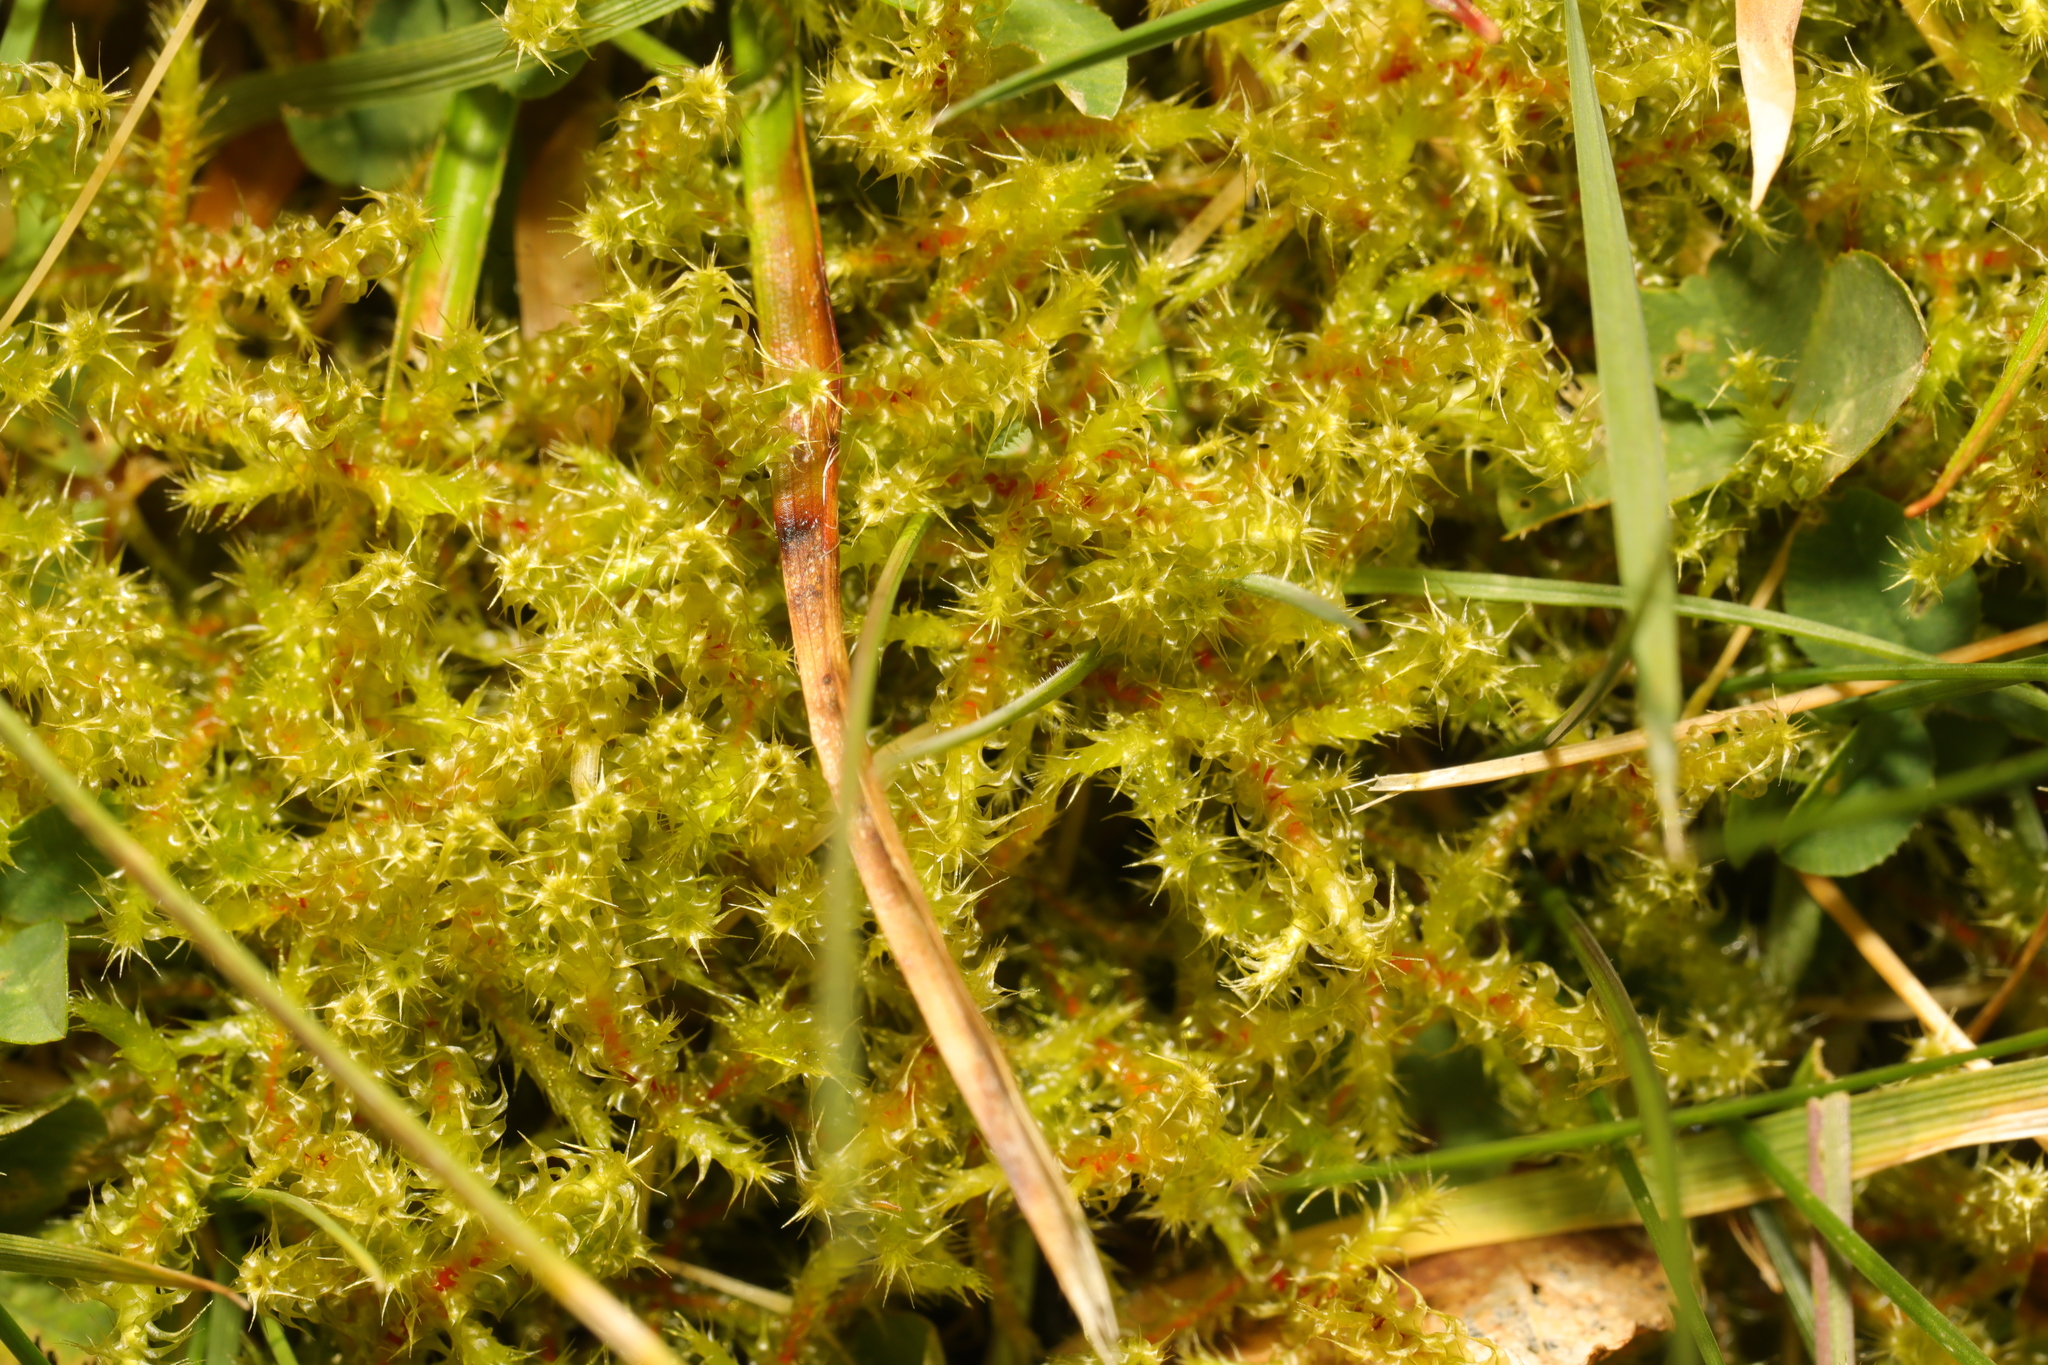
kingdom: Plantae
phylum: Bryophyta
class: Bryopsida
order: Hypnales
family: Hylocomiaceae
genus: Rhytidiadelphus
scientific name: Rhytidiadelphus squarrosus
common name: Springy turf-moss
